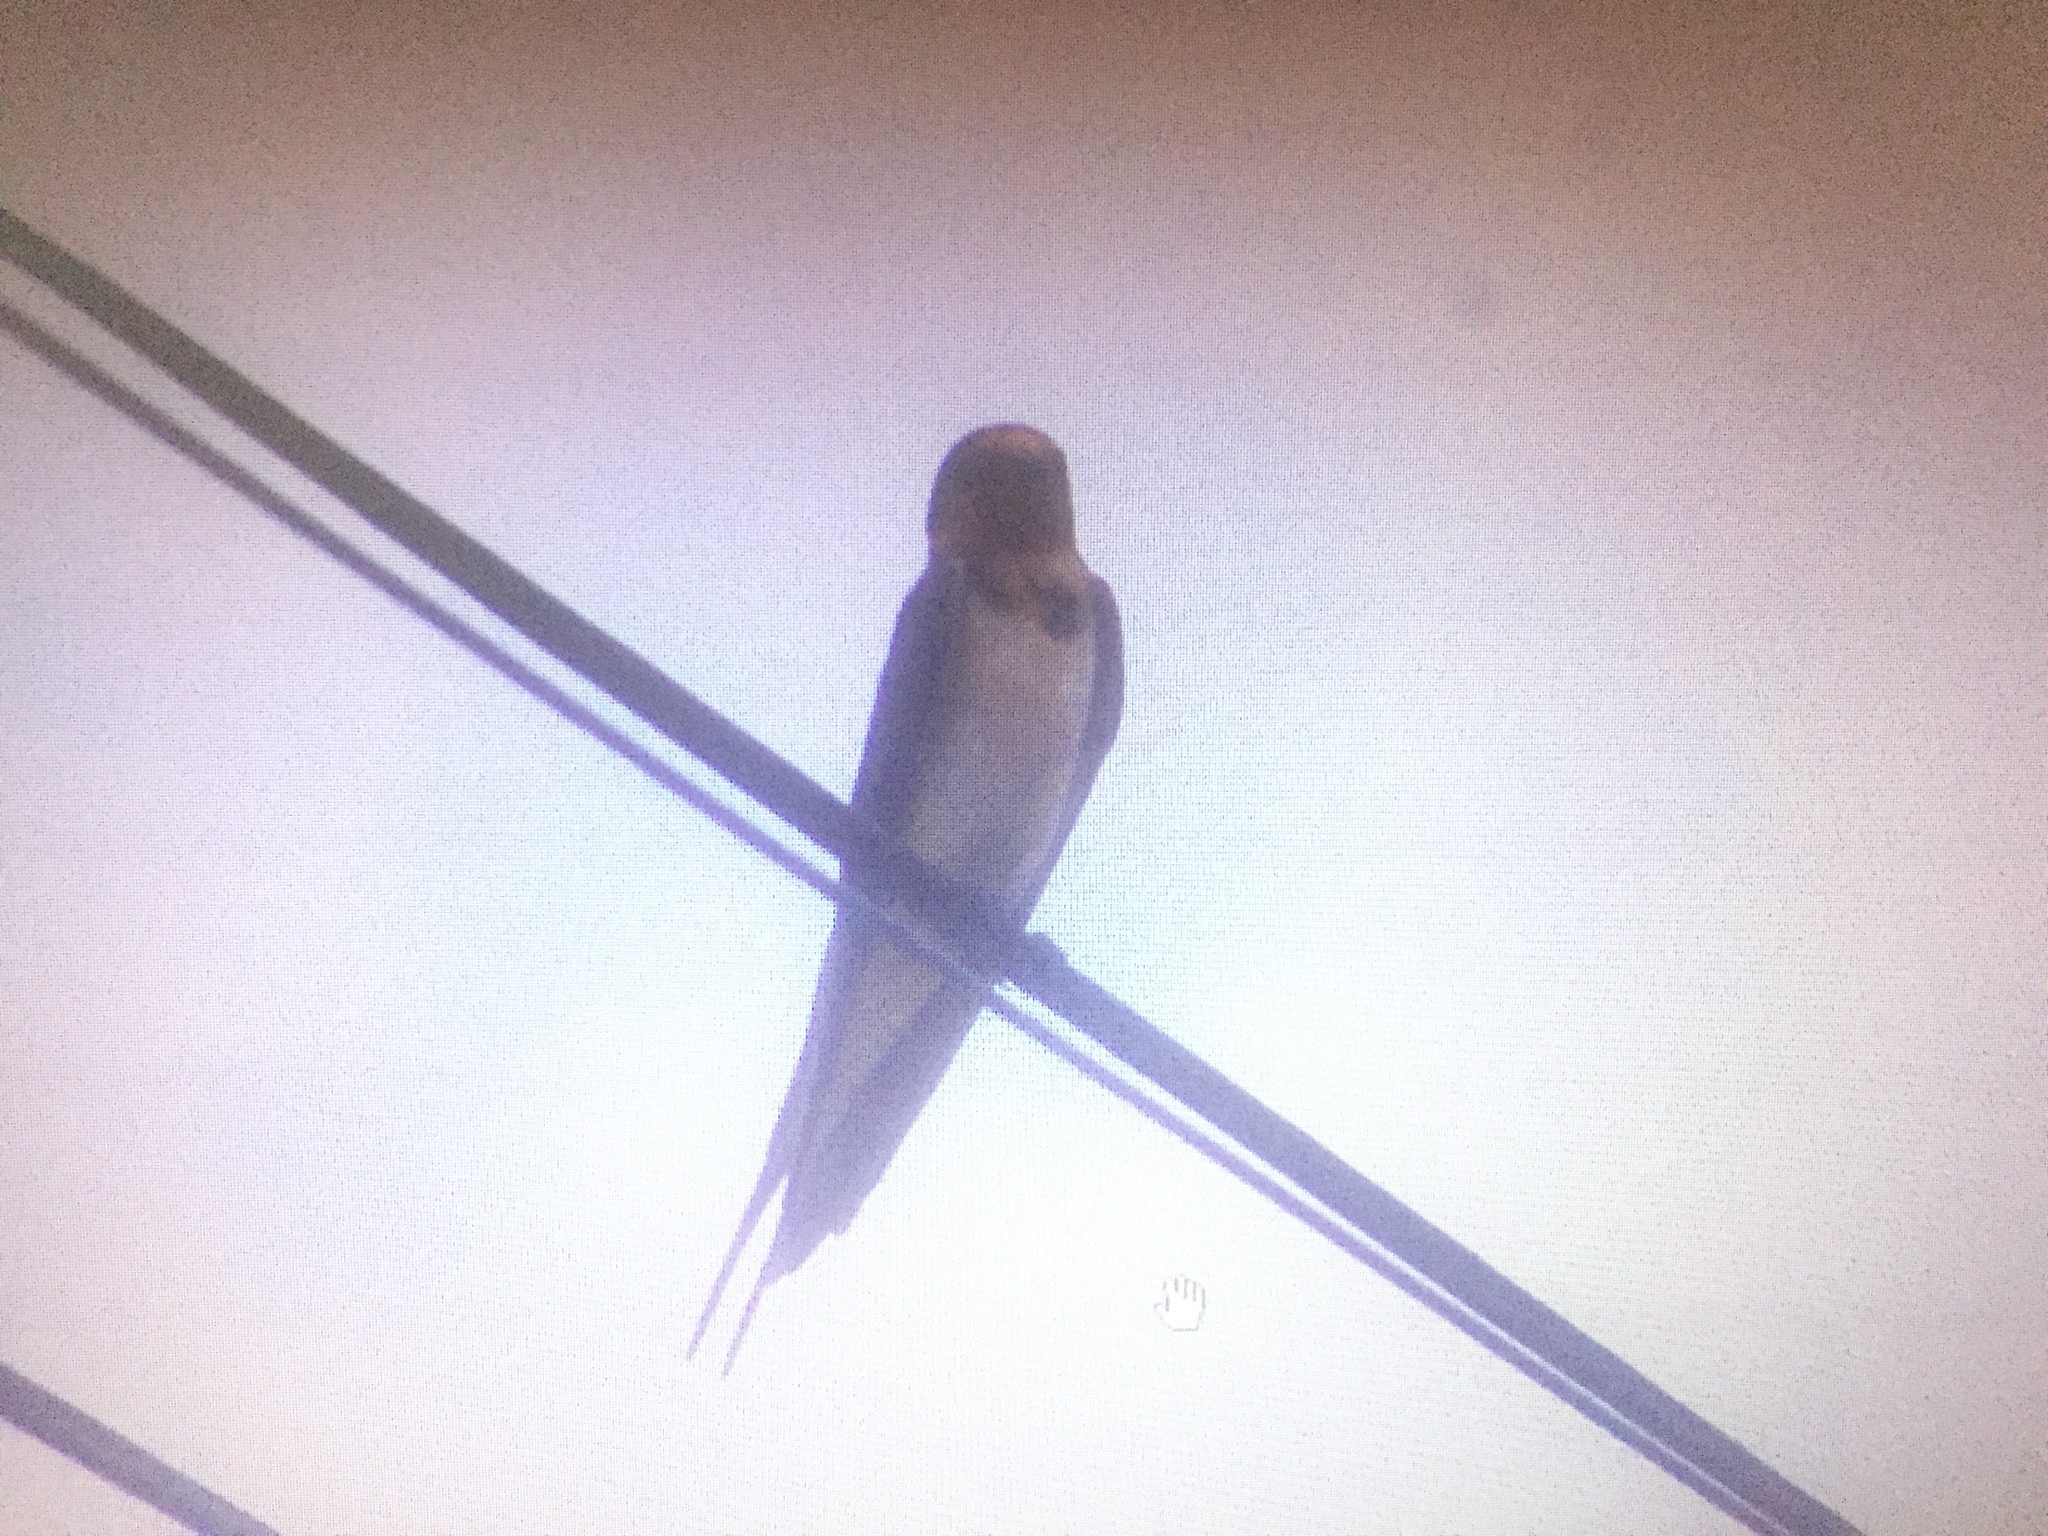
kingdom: Animalia
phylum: Chordata
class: Aves
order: Passeriformes
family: Hirundinidae
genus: Hirundo
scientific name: Hirundo rustica
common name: Barn swallow
